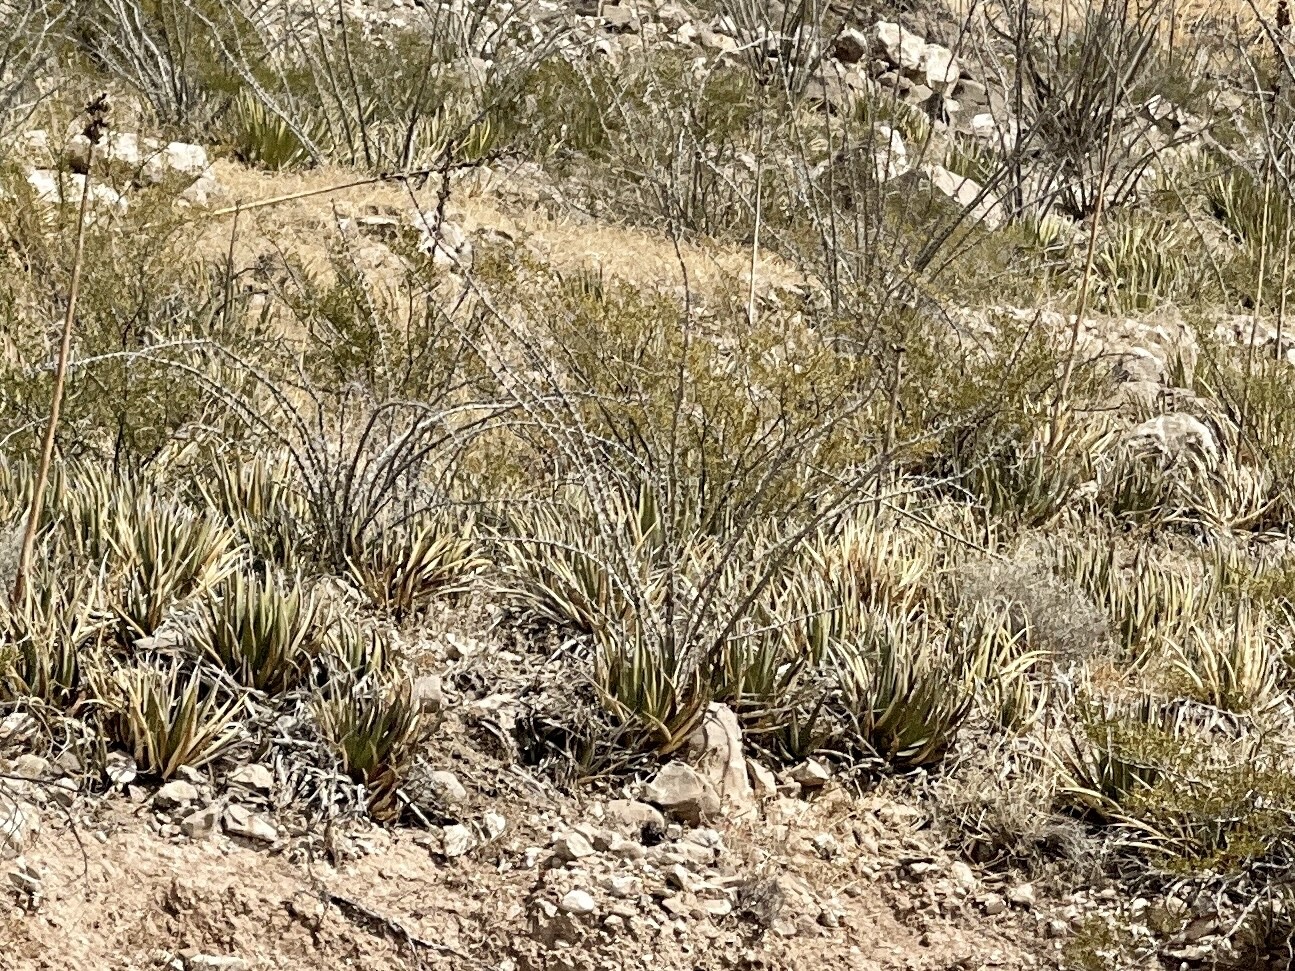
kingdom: Plantae
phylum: Tracheophyta
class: Liliopsida
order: Asparagales
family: Asparagaceae
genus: Agave
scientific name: Agave lechuguilla
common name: Lecheguilla agave
